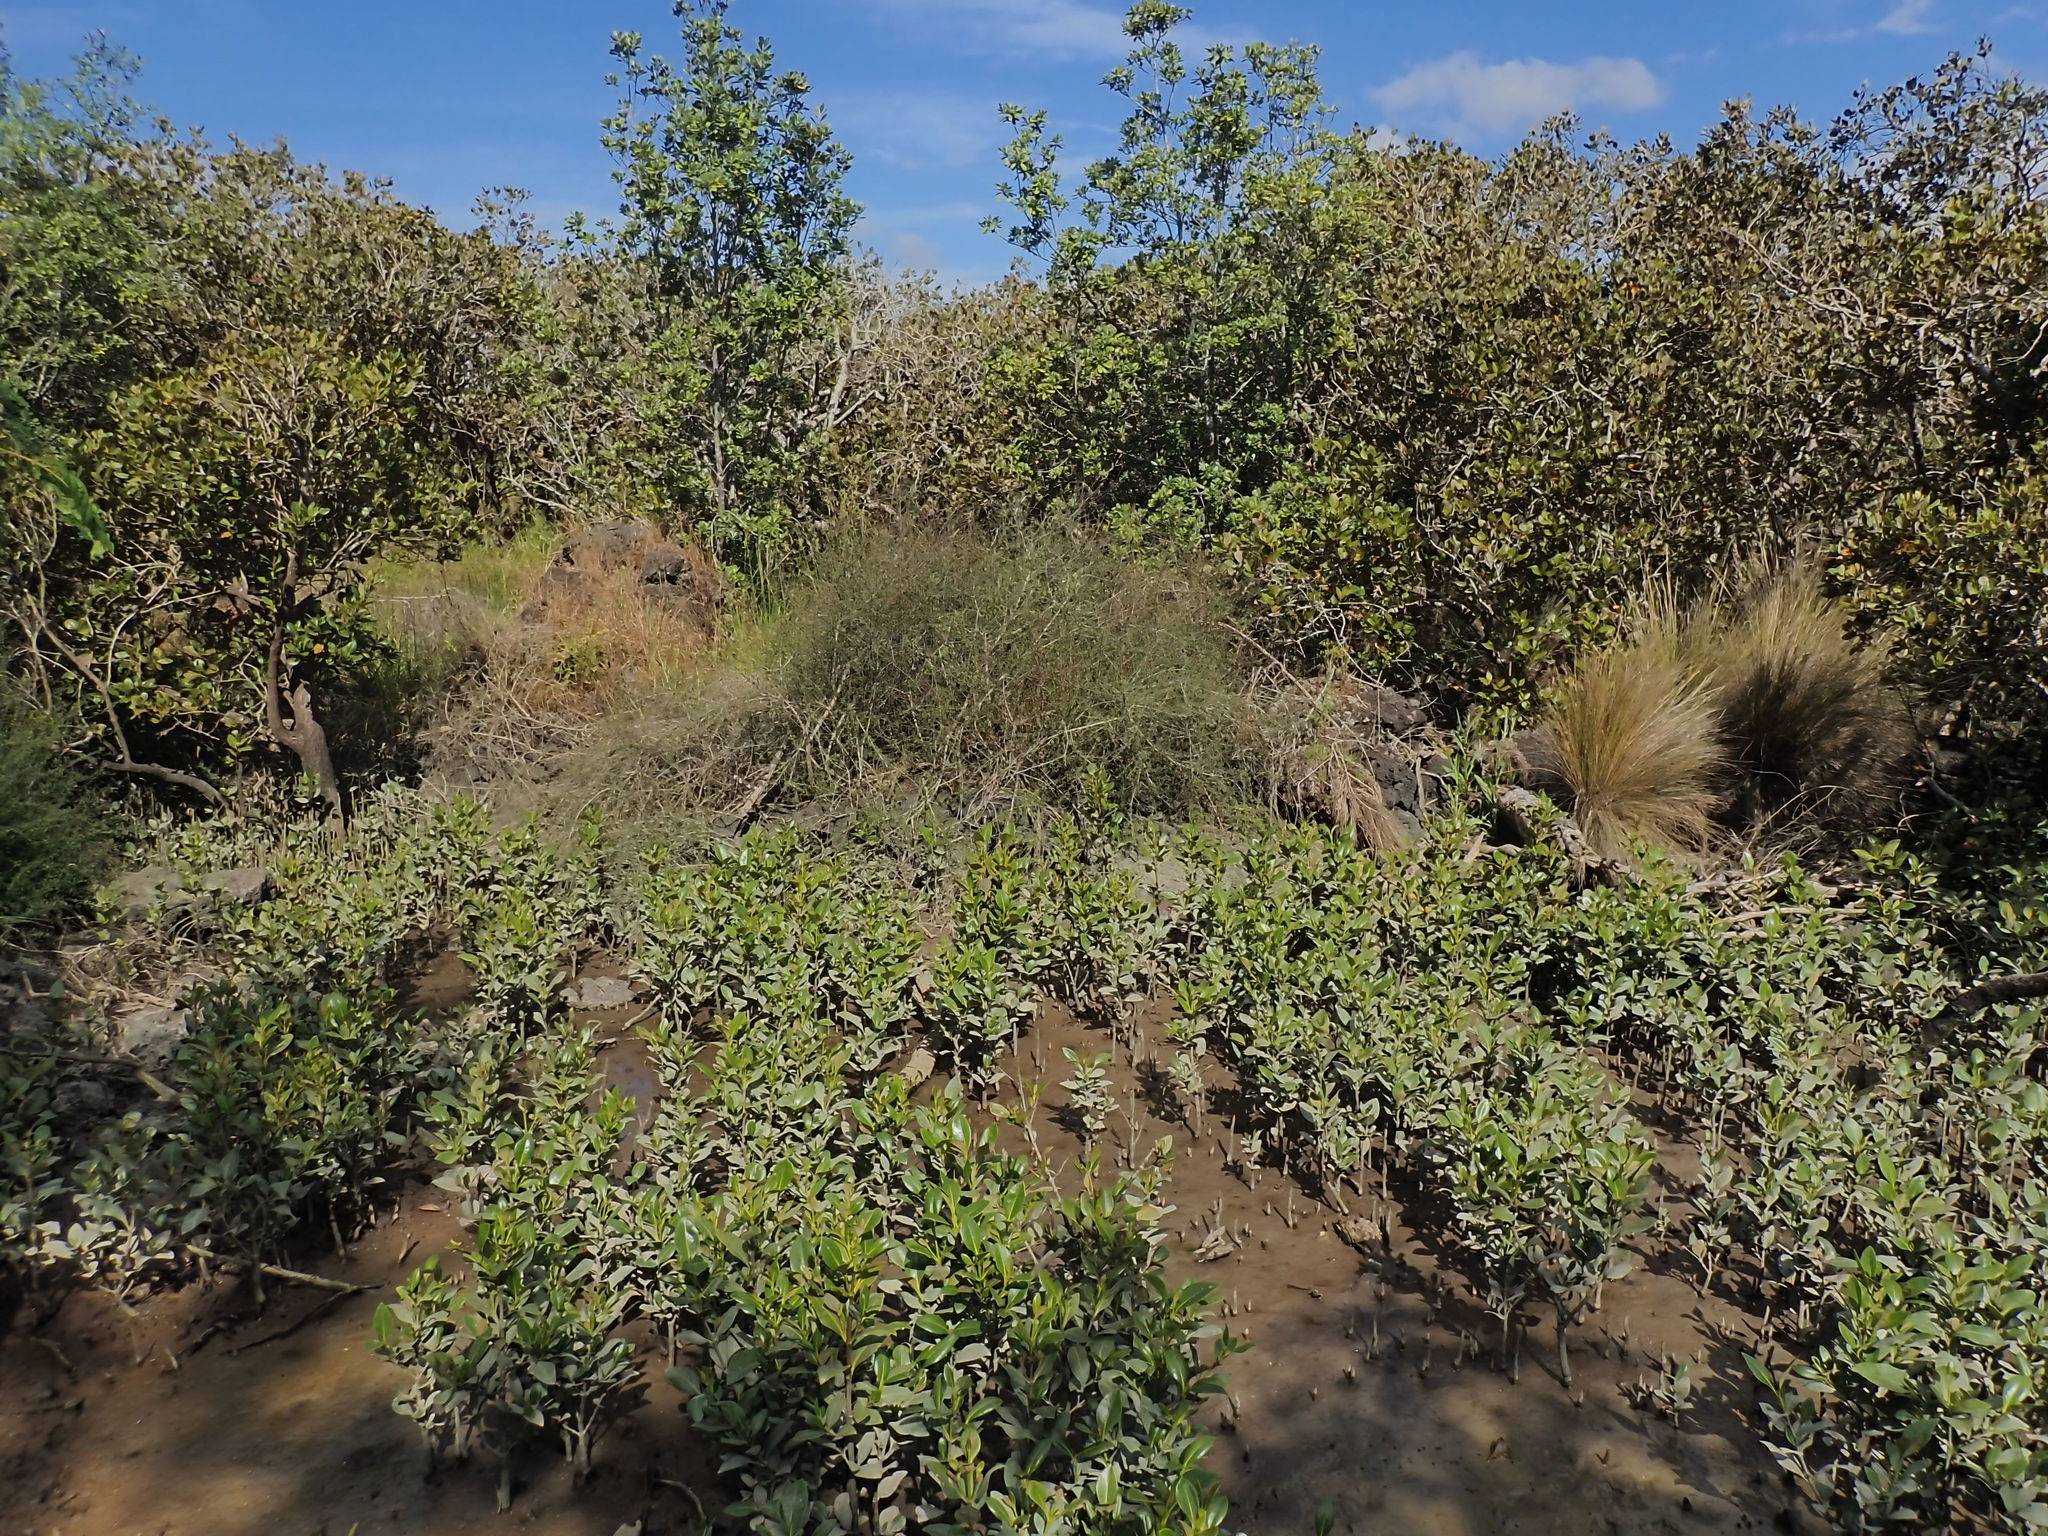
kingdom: Animalia
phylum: Mollusca
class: Gastropoda
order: Littorinimorpha
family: Tateidae
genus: Potamopyrgus
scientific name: Potamopyrgus estuarinus
